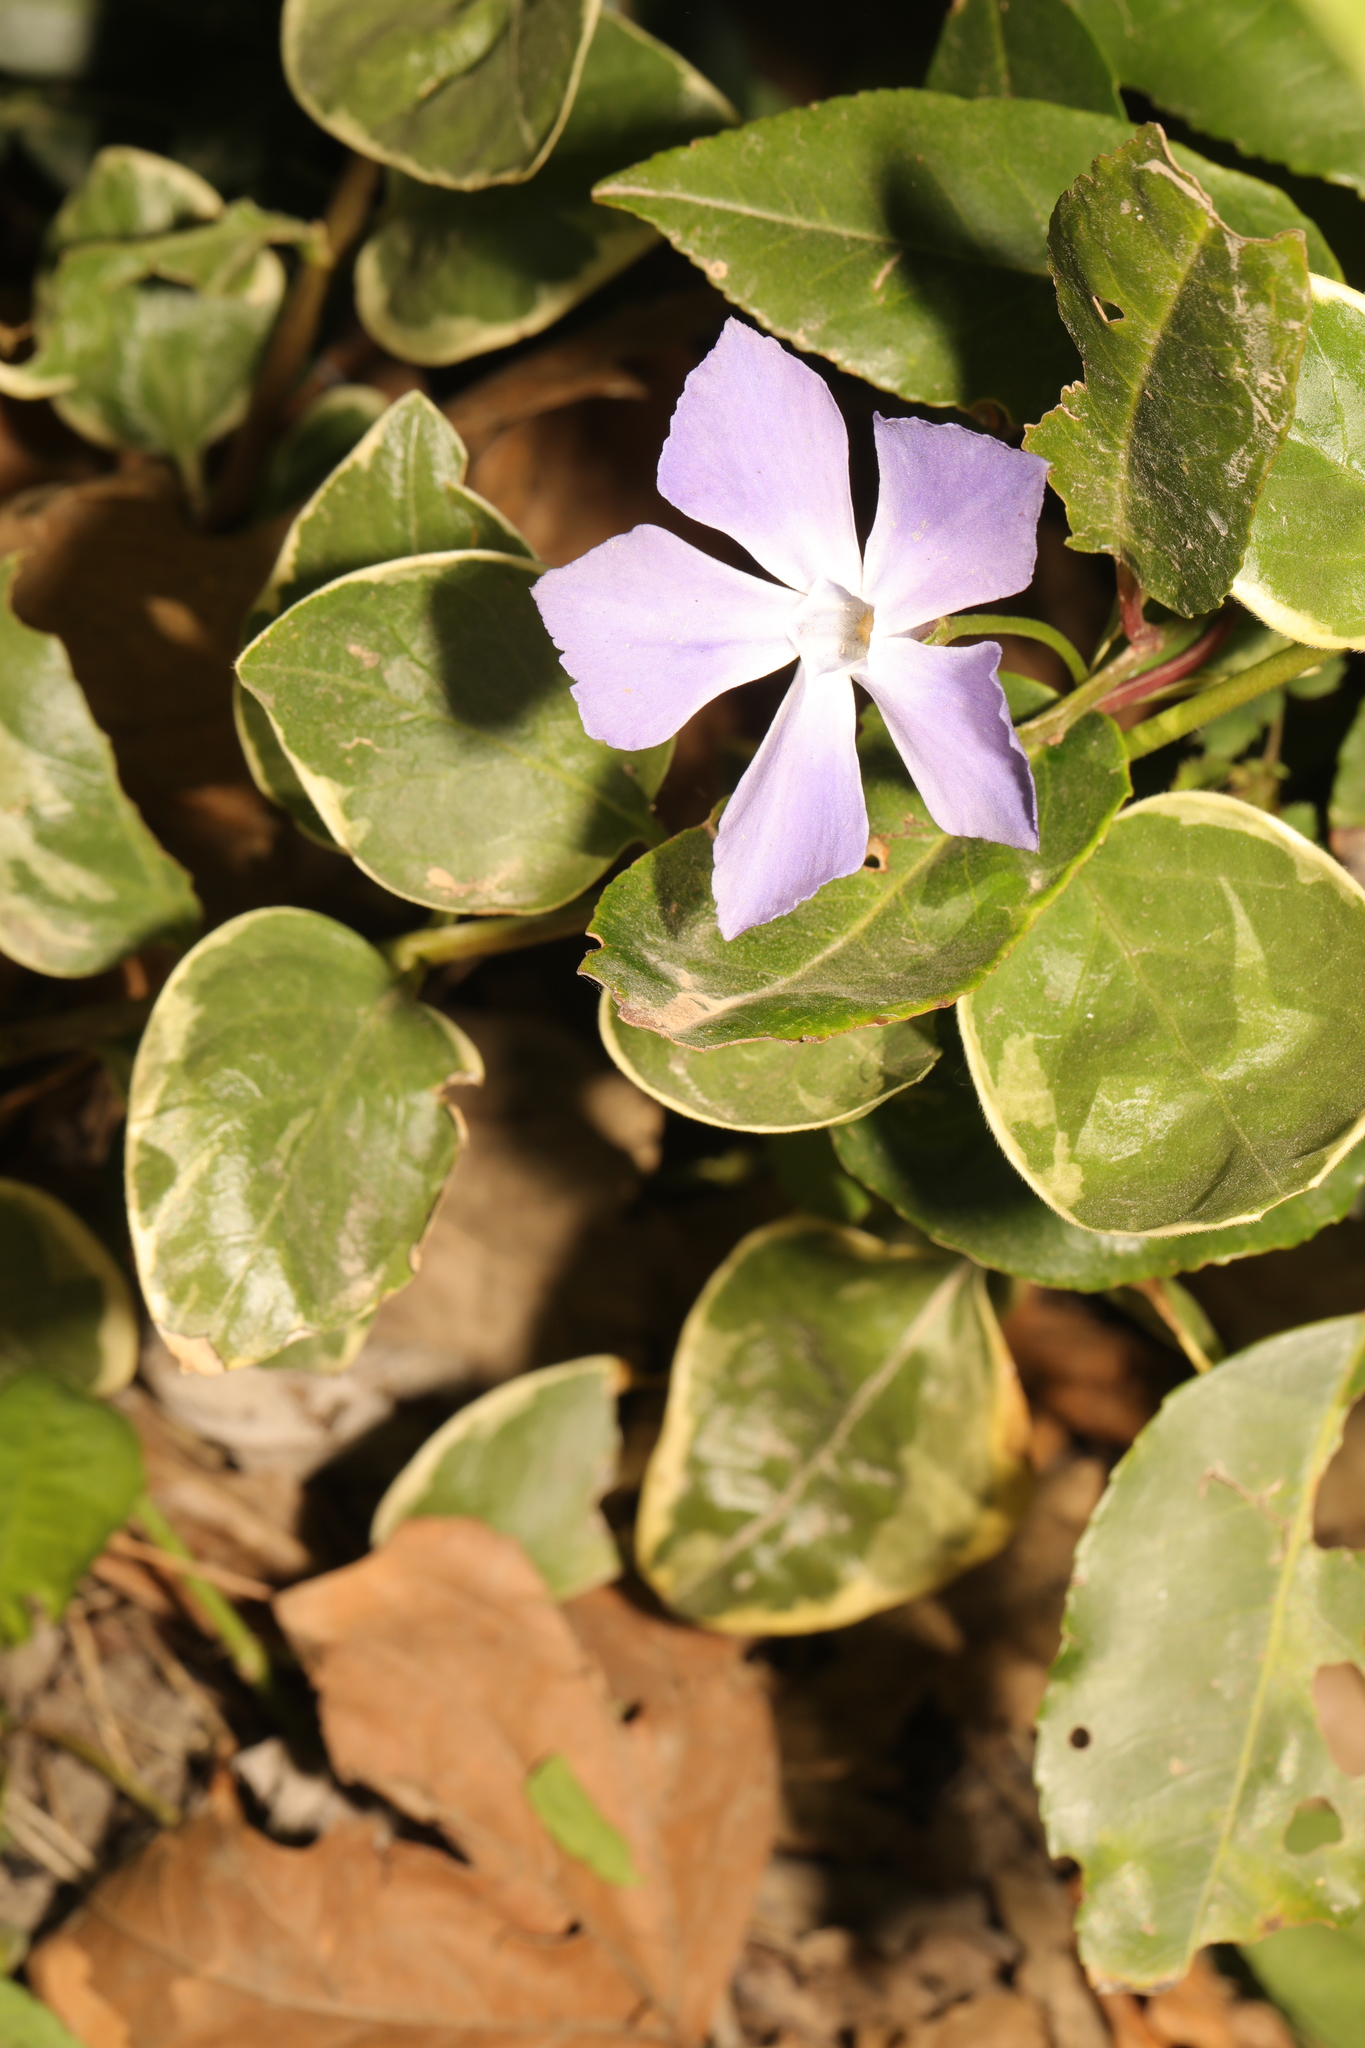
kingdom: Plantae
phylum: Tracheophyta
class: Magnoliopsida
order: Gentianales
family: Apocynaceae
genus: Vinca
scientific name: Vinca major
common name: Greater periwinkle
